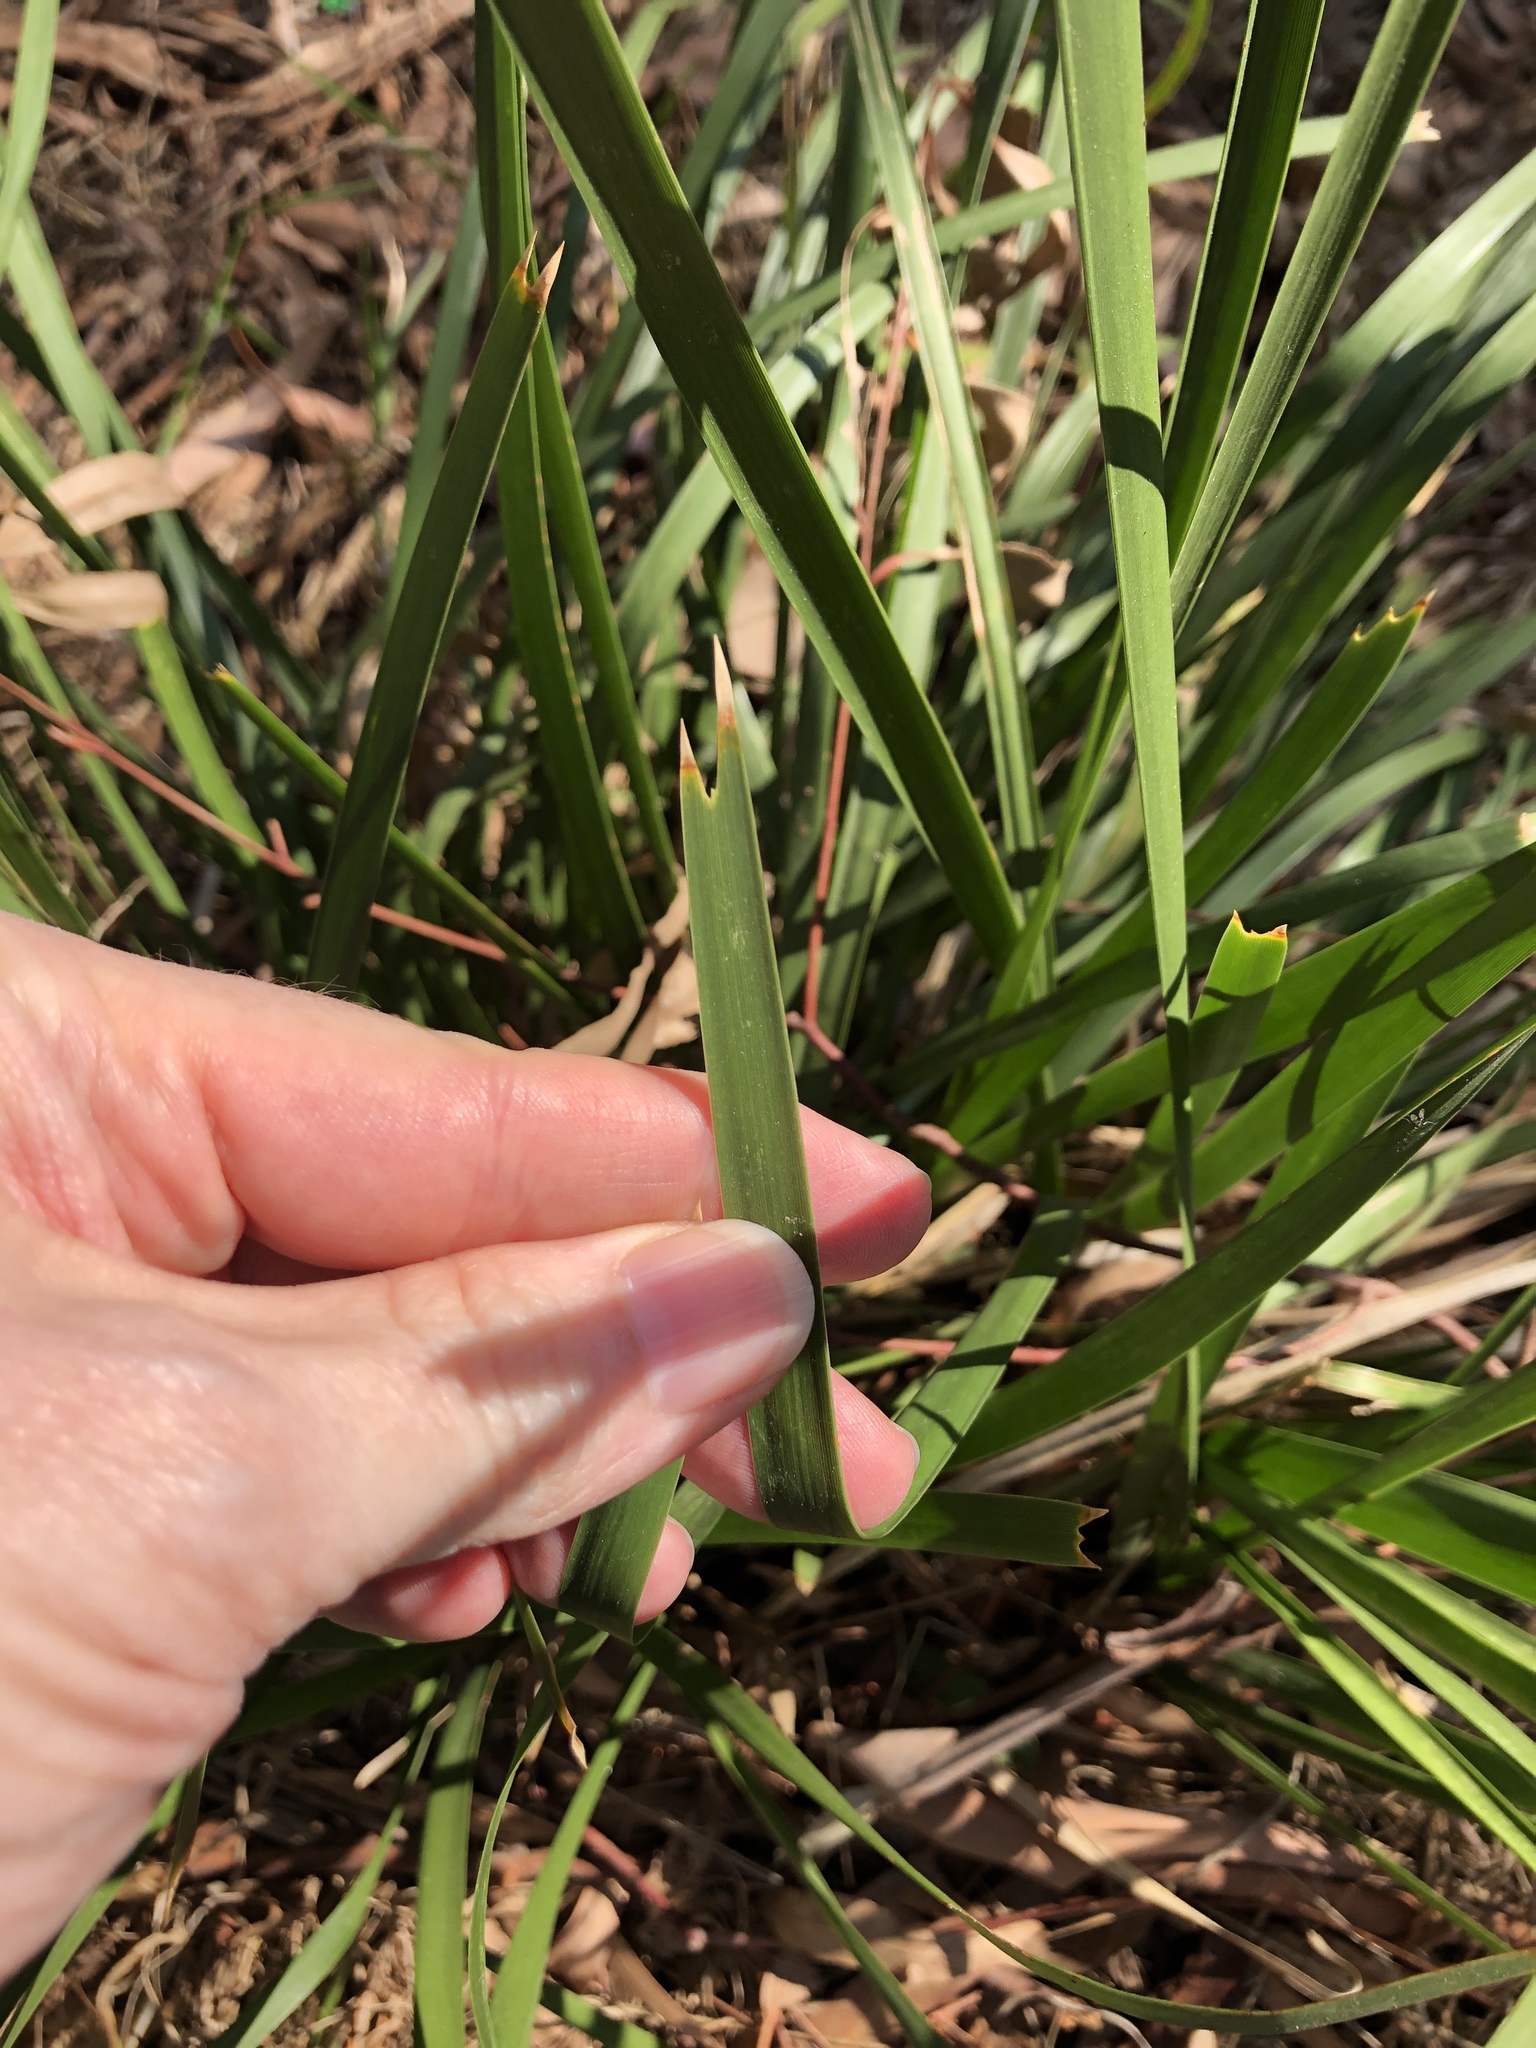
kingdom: Plantae
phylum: Tracheophyta
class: Liliopsida
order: Asparagales
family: Asparagaceae
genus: Lomandra
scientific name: Lomandra longifolia
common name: Longleaf mat-rush
